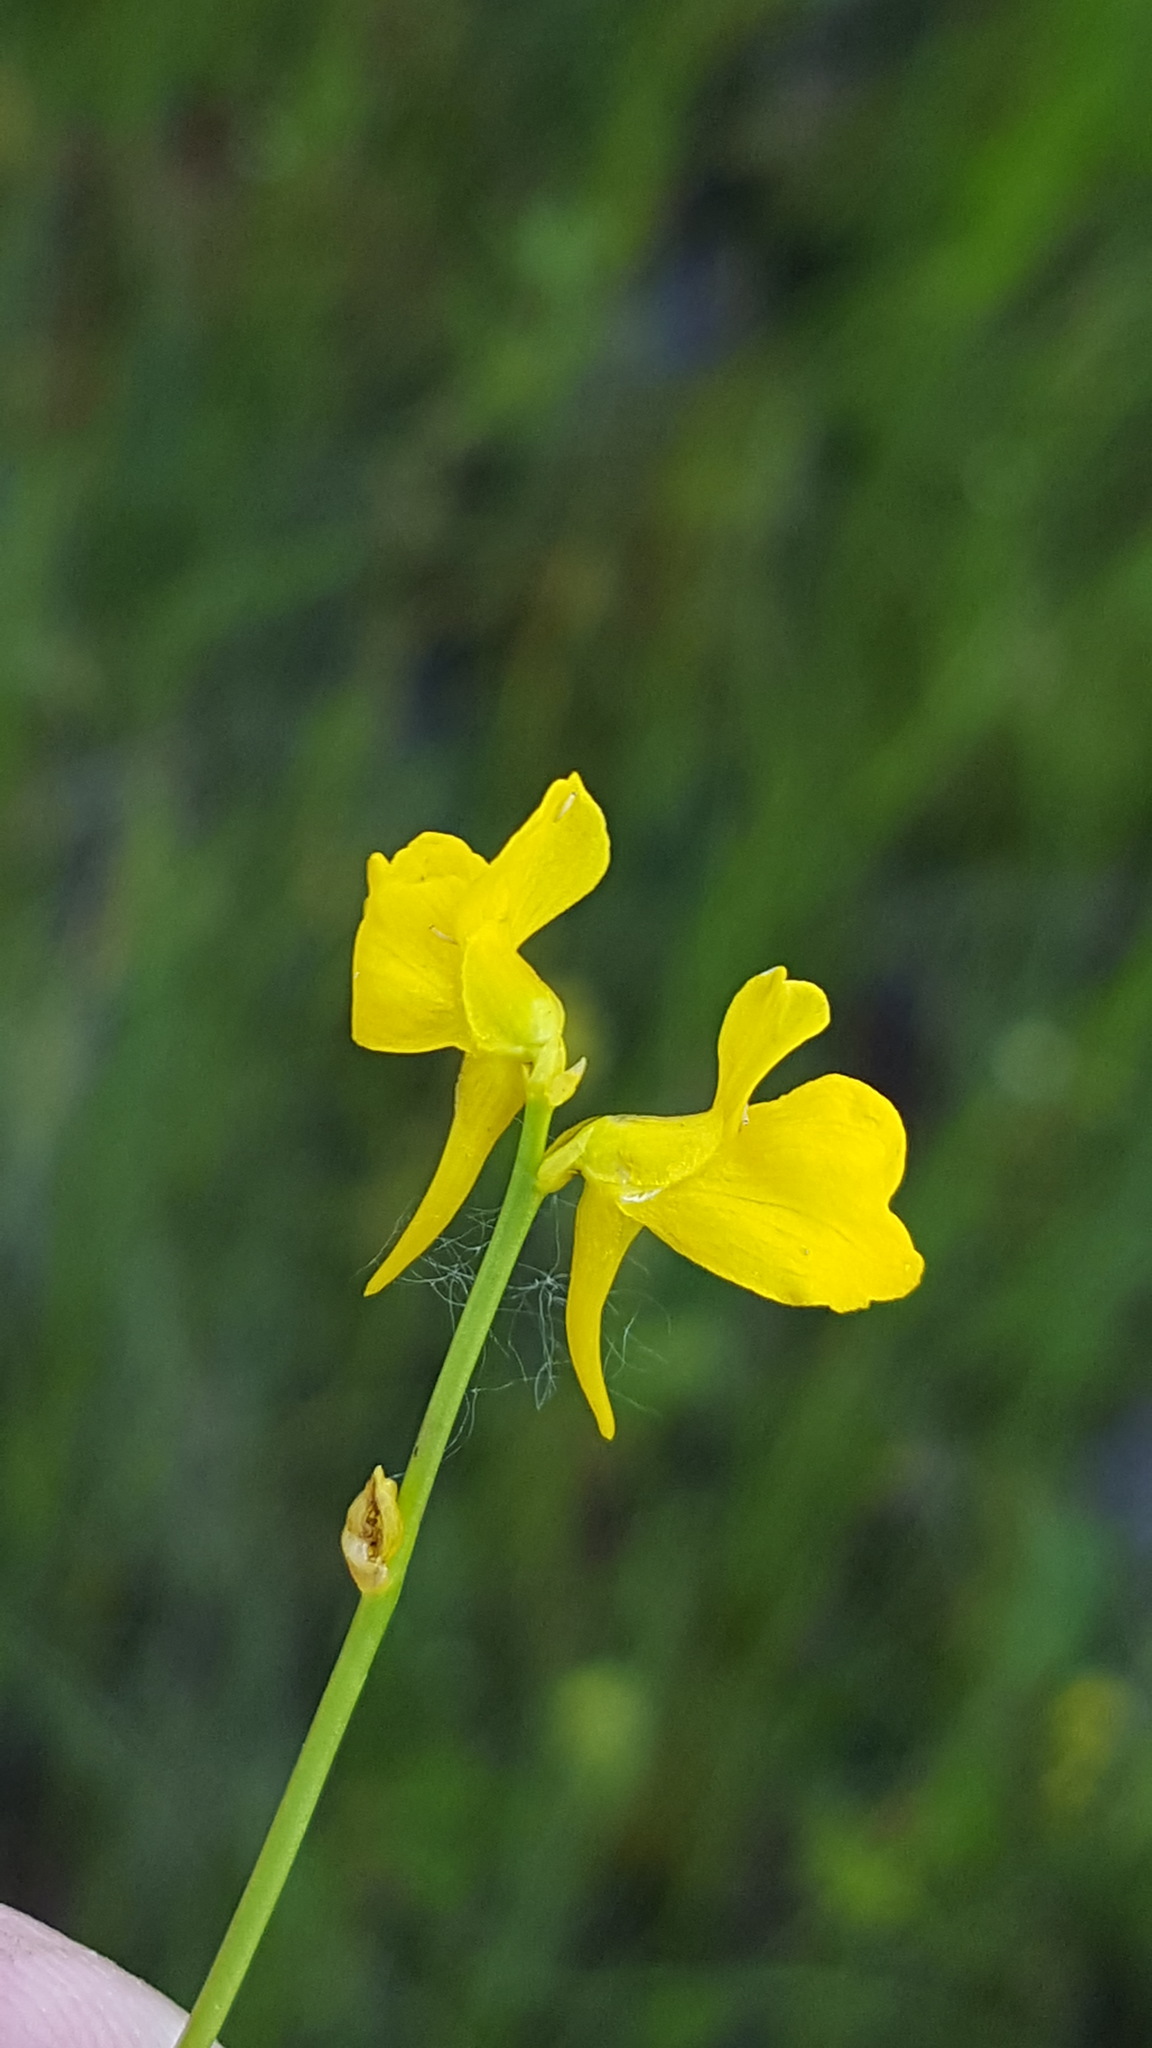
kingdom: Plantae
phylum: Tracheophyta
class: Magnoliopsida
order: Lamiales
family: Lentibulariaceae
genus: Utricularia
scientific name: Utricularia cornuta
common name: Horned bladderwort
